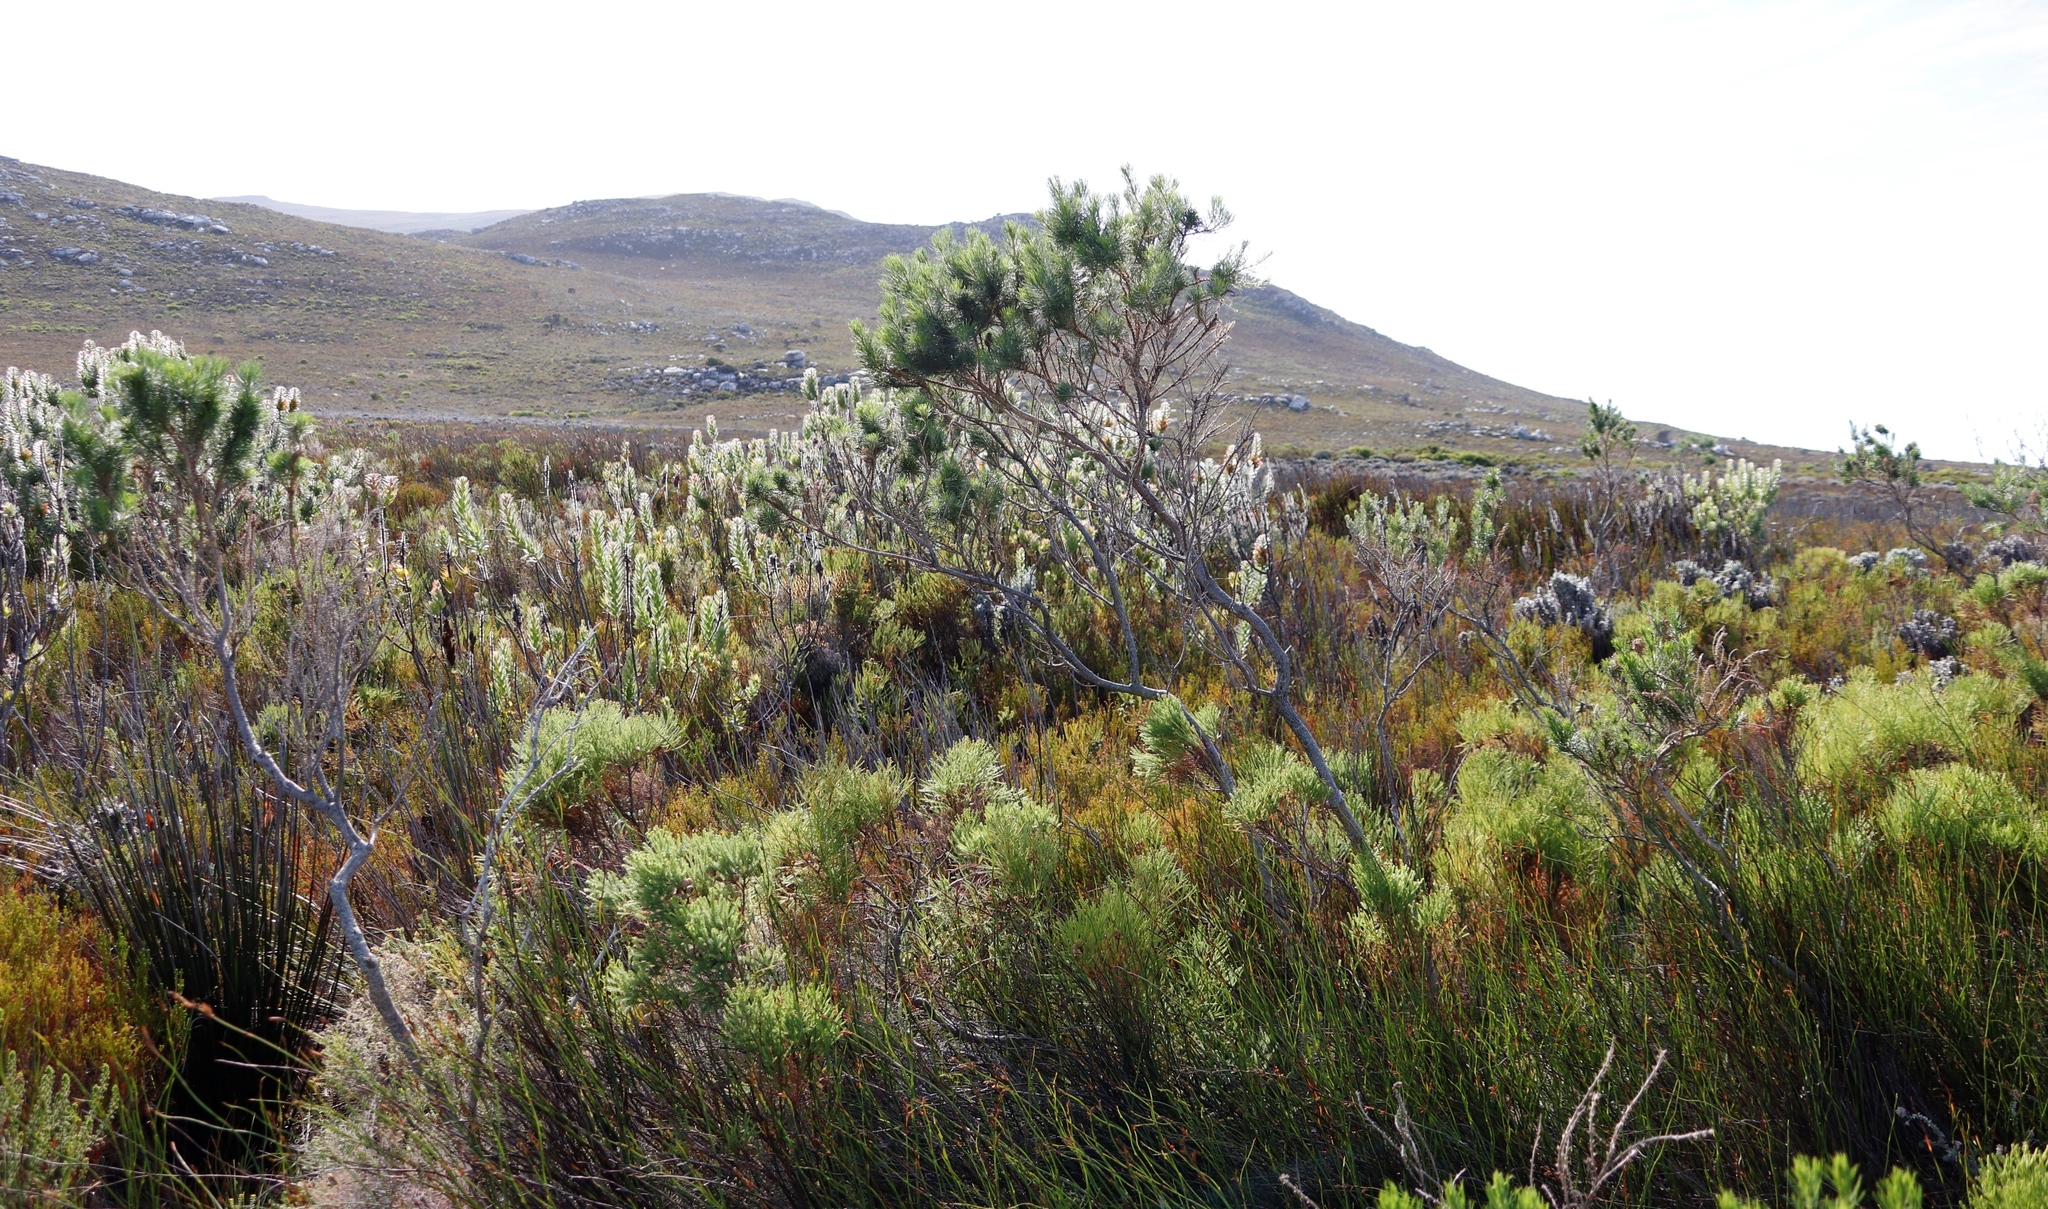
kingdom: Plantae
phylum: Tracheophyta
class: Magnoliopsida
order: Fabales
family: Fabaceae
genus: Psoralea
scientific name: Psoralea pinnata
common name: African scurfpea
